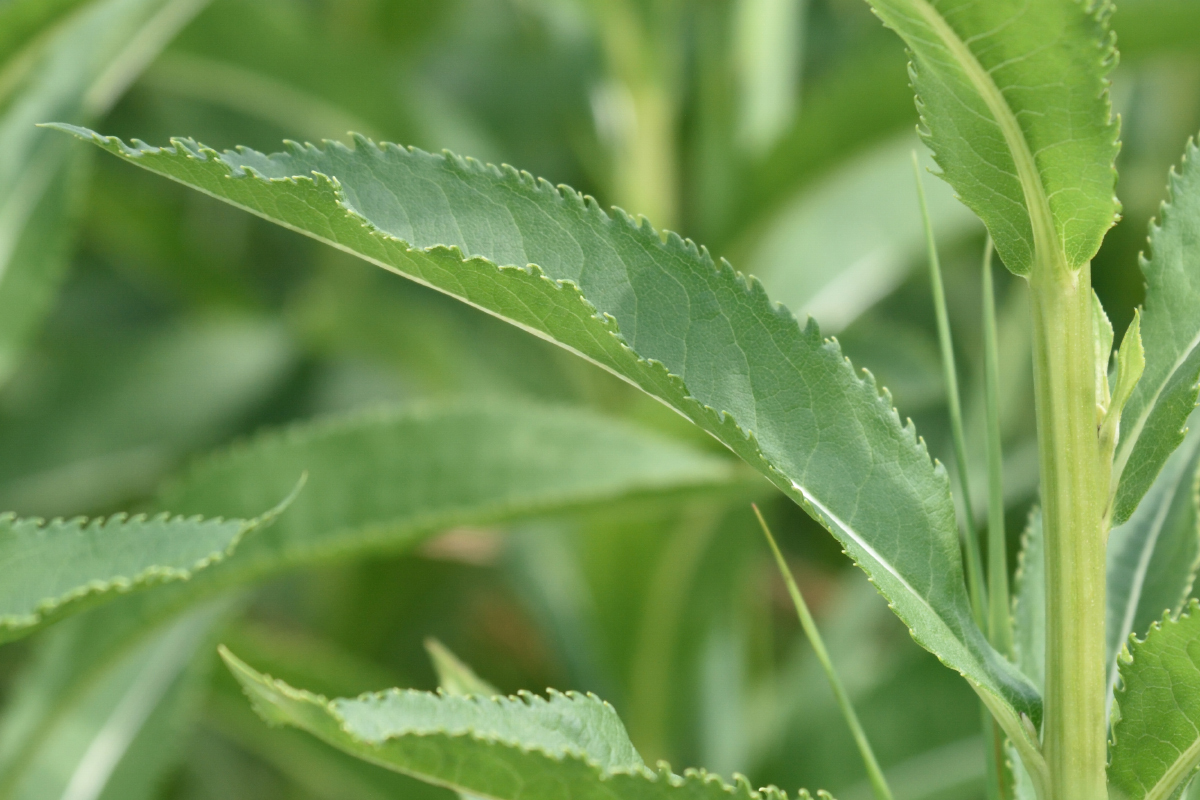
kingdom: Plantae
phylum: Tracheophyta
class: Magnoliopsida
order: Asterales
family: Asteraceae
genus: Senecio
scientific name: Senecio sarracenicus
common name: Broad-leaved ragwort
